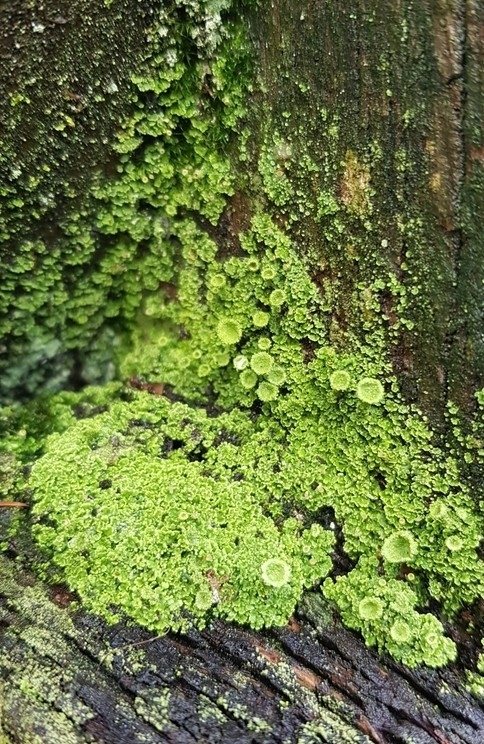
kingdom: Fungi
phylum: Ascomycota
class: Lecanoromycetes
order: Lecanorales
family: Cladoniaceae
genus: Cladonia
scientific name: Cladonia
